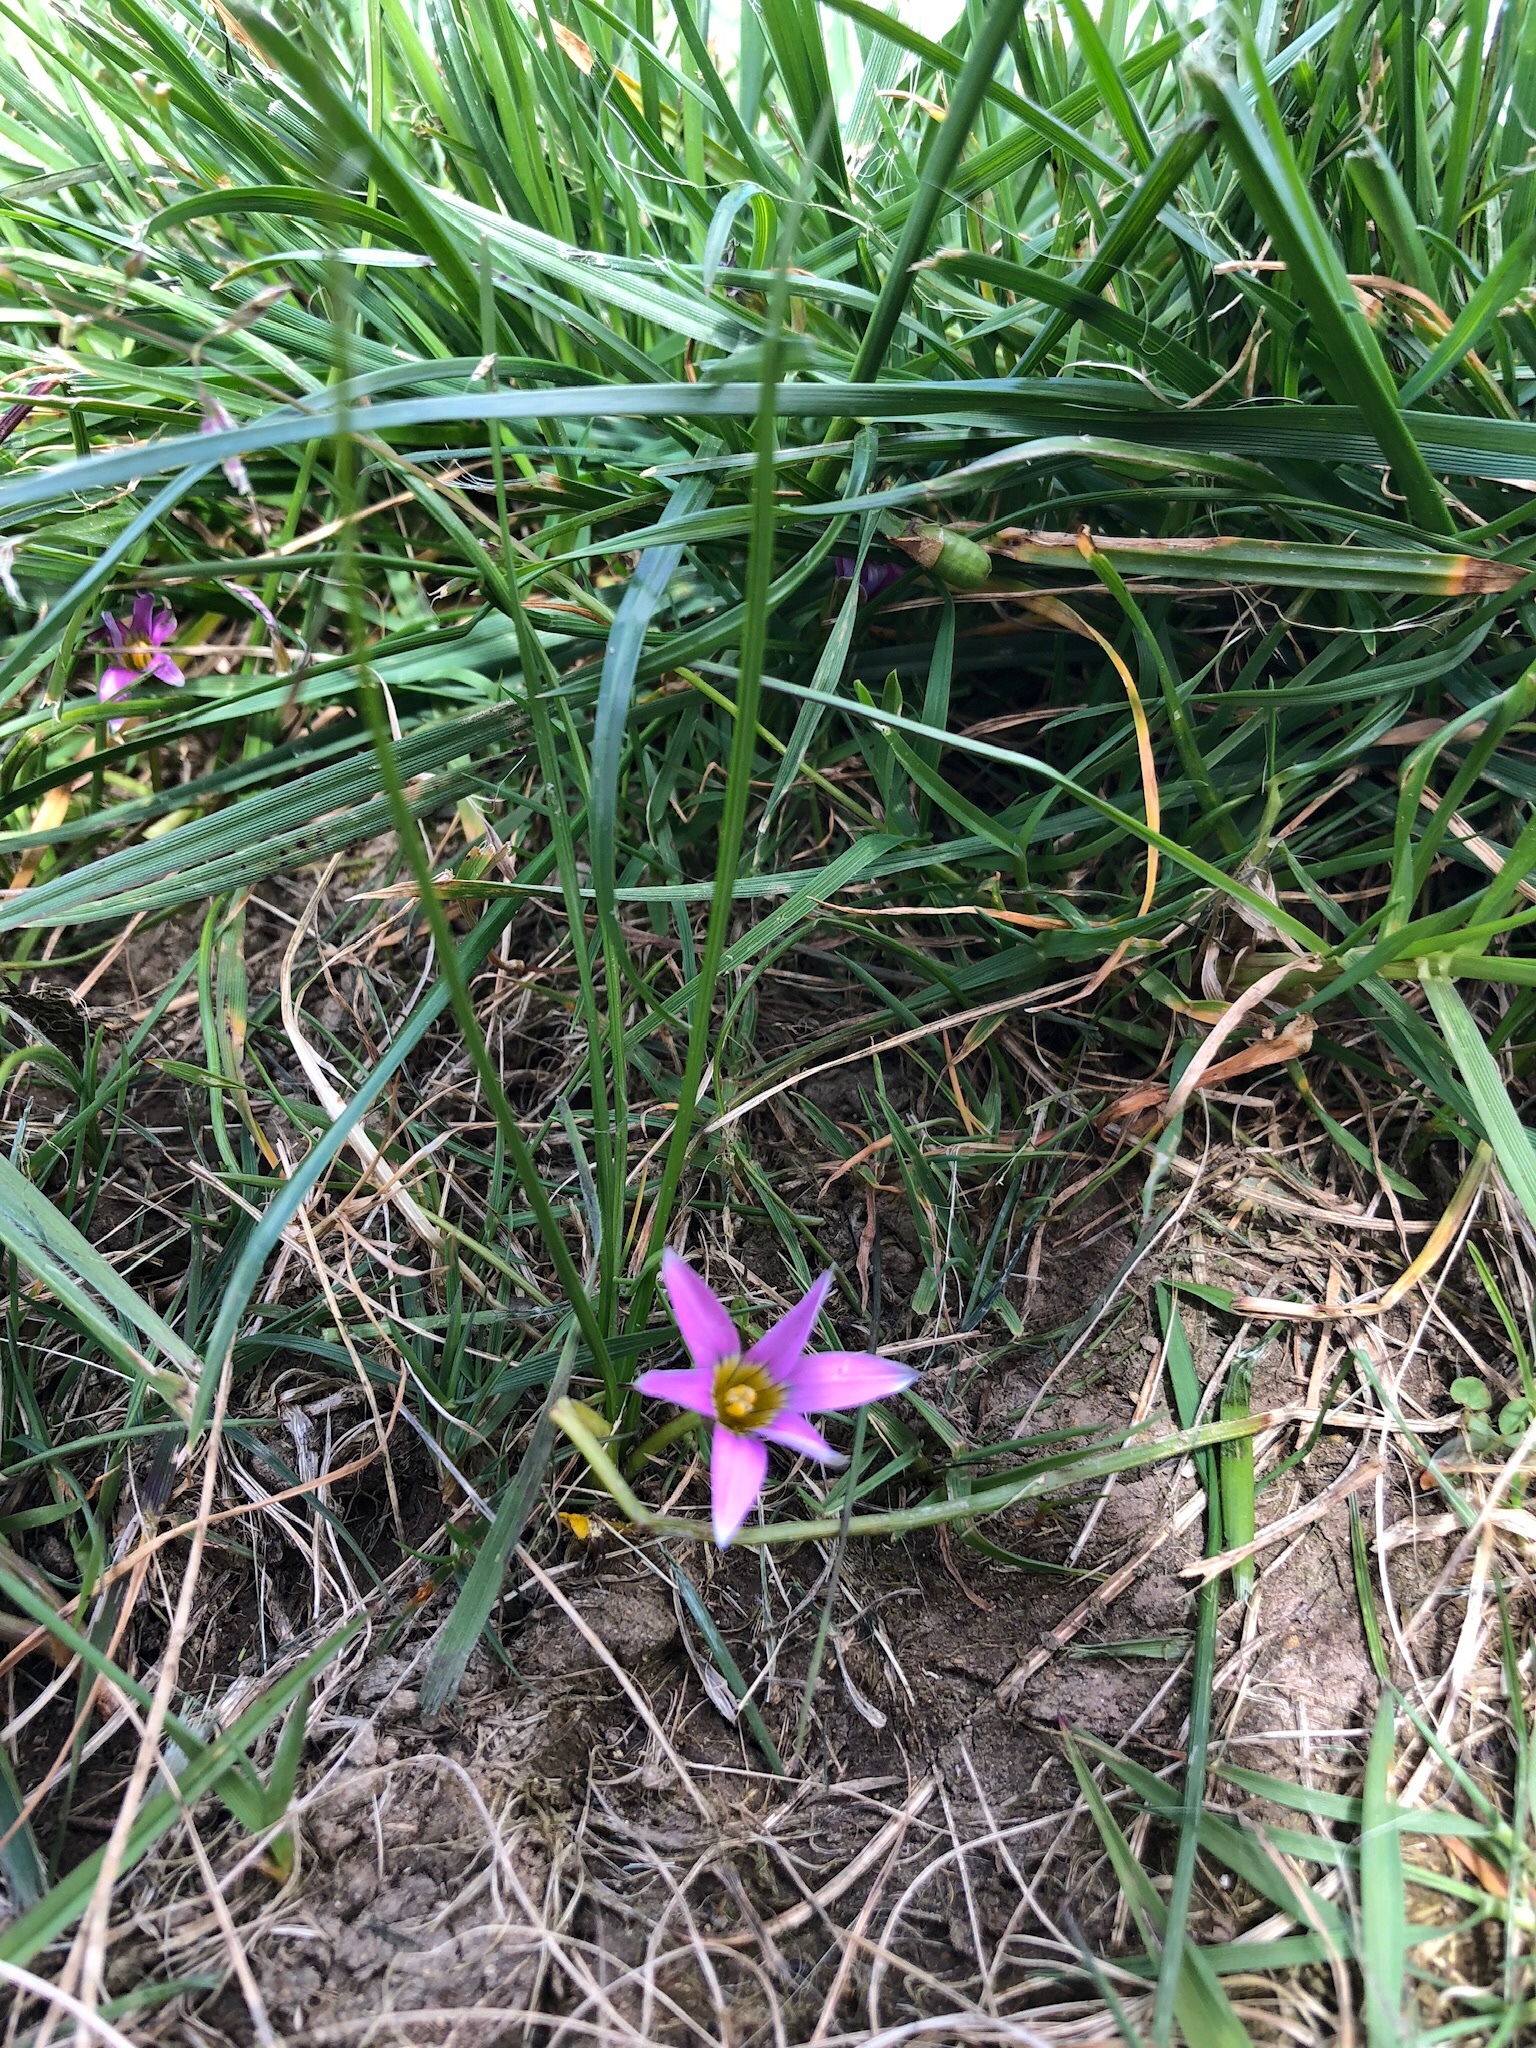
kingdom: Plantae
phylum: Tracheophyta
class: Liliopsida
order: Asparagales
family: Iridaceae
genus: Romulea
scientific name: Romulea rosea
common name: Oniongrass
